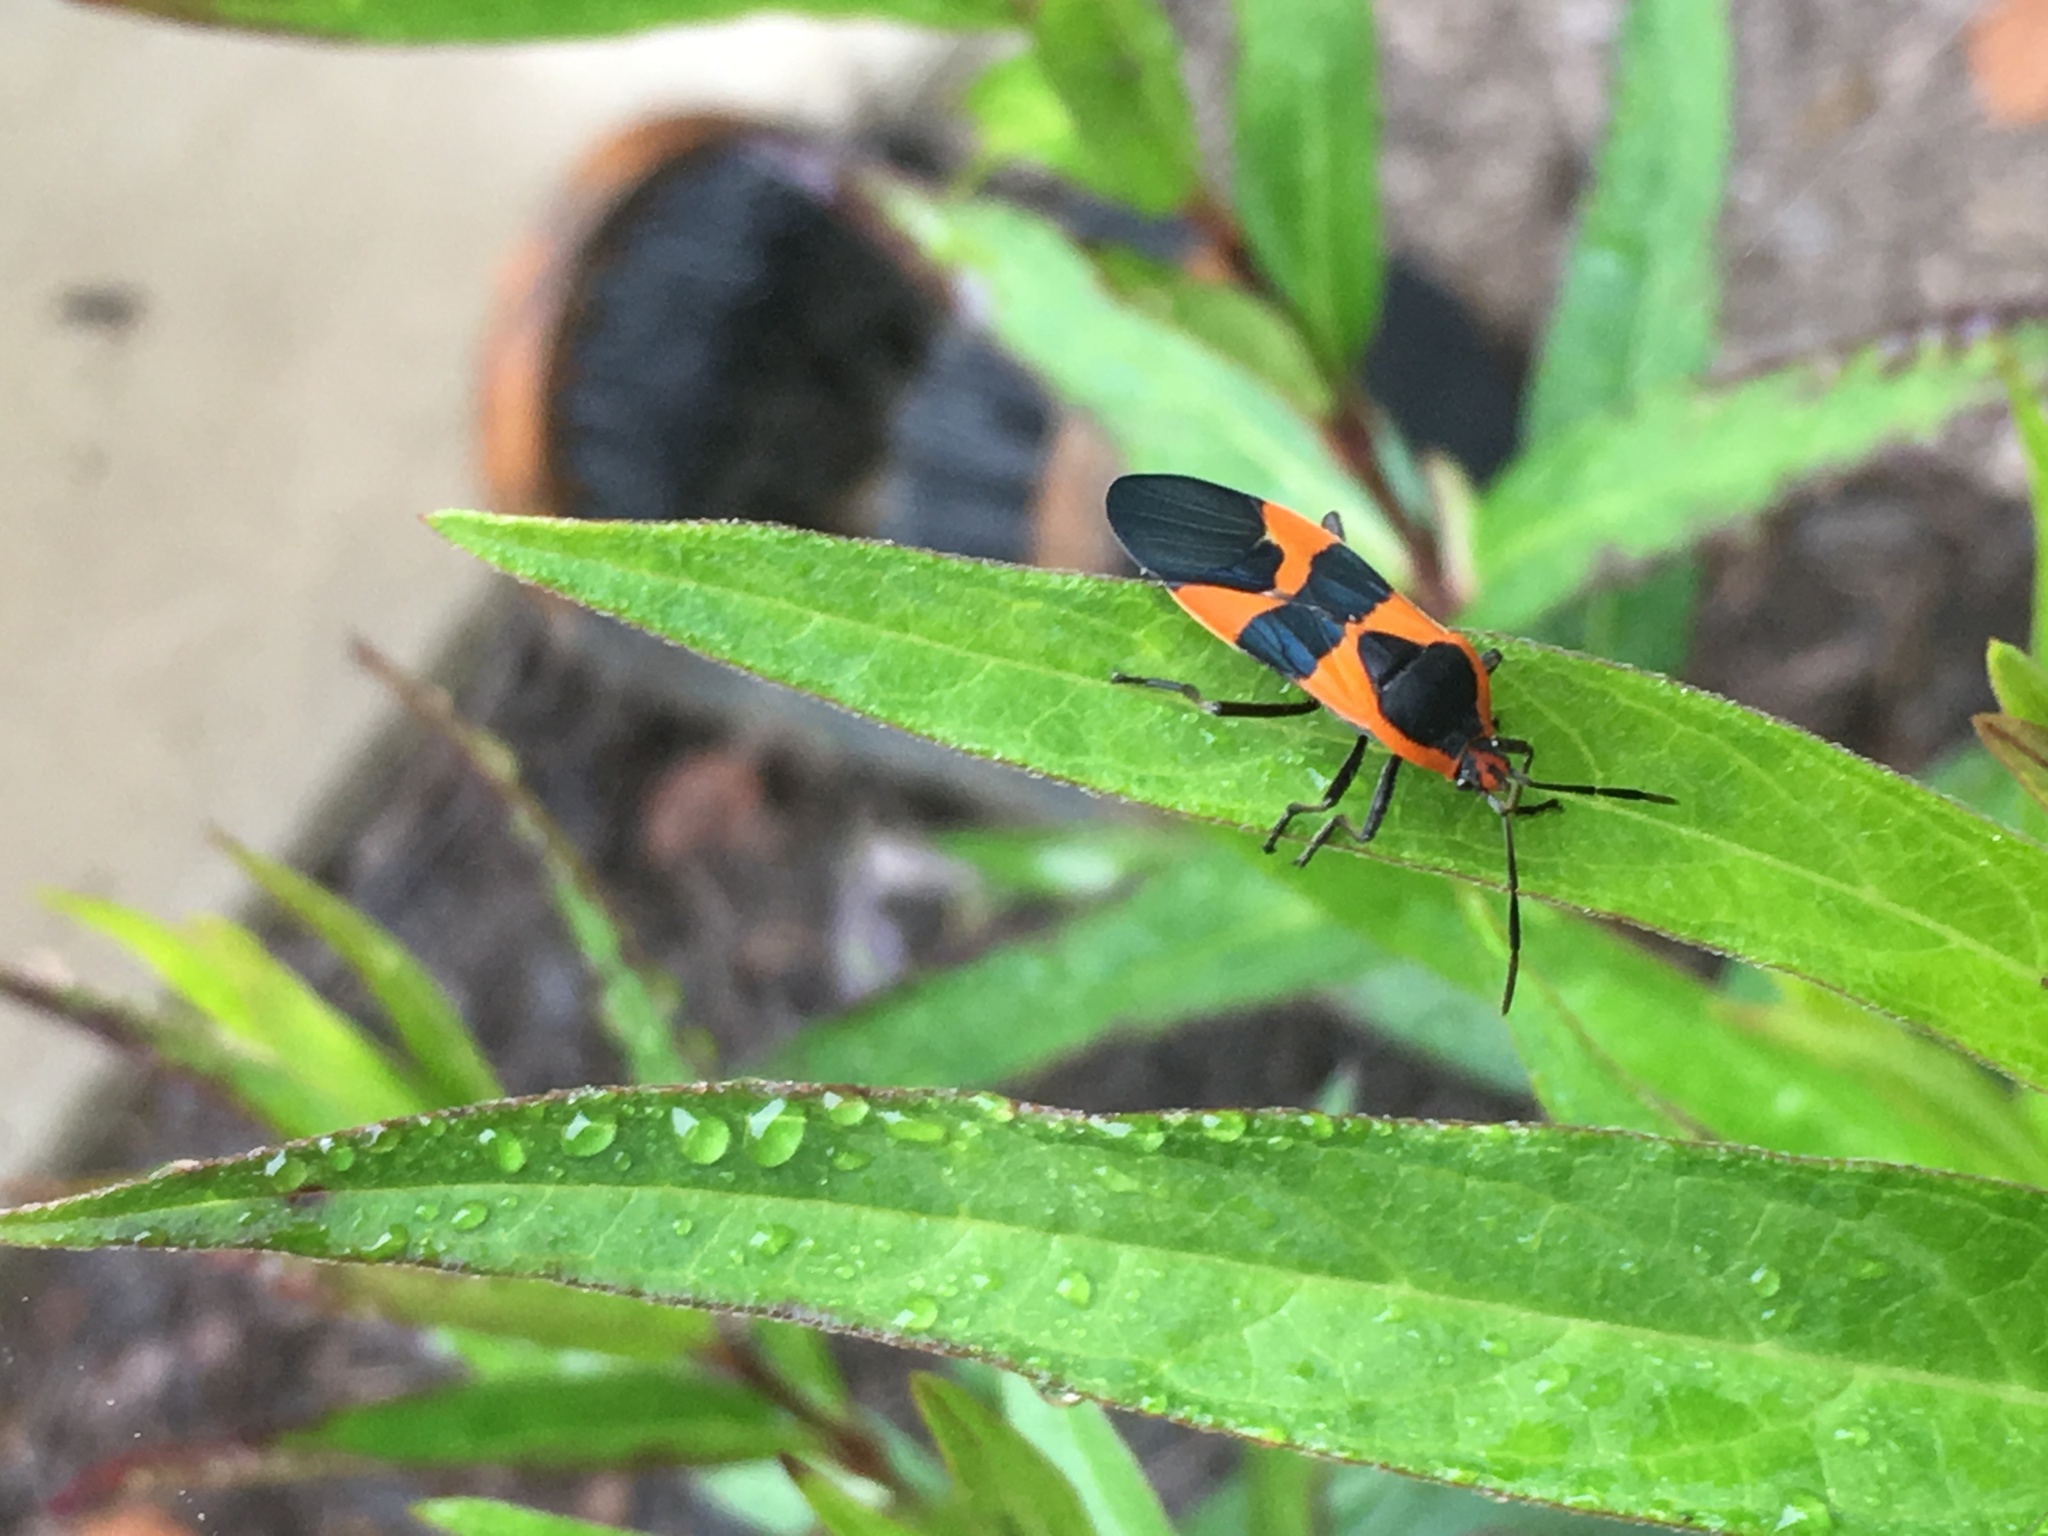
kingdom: Animalia
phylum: Arthropoda
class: Insecta
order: Hemiptera
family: Lygaeidae
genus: Oncopeltus
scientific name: Oncopeltus fasciatus
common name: Large milkweed bug
